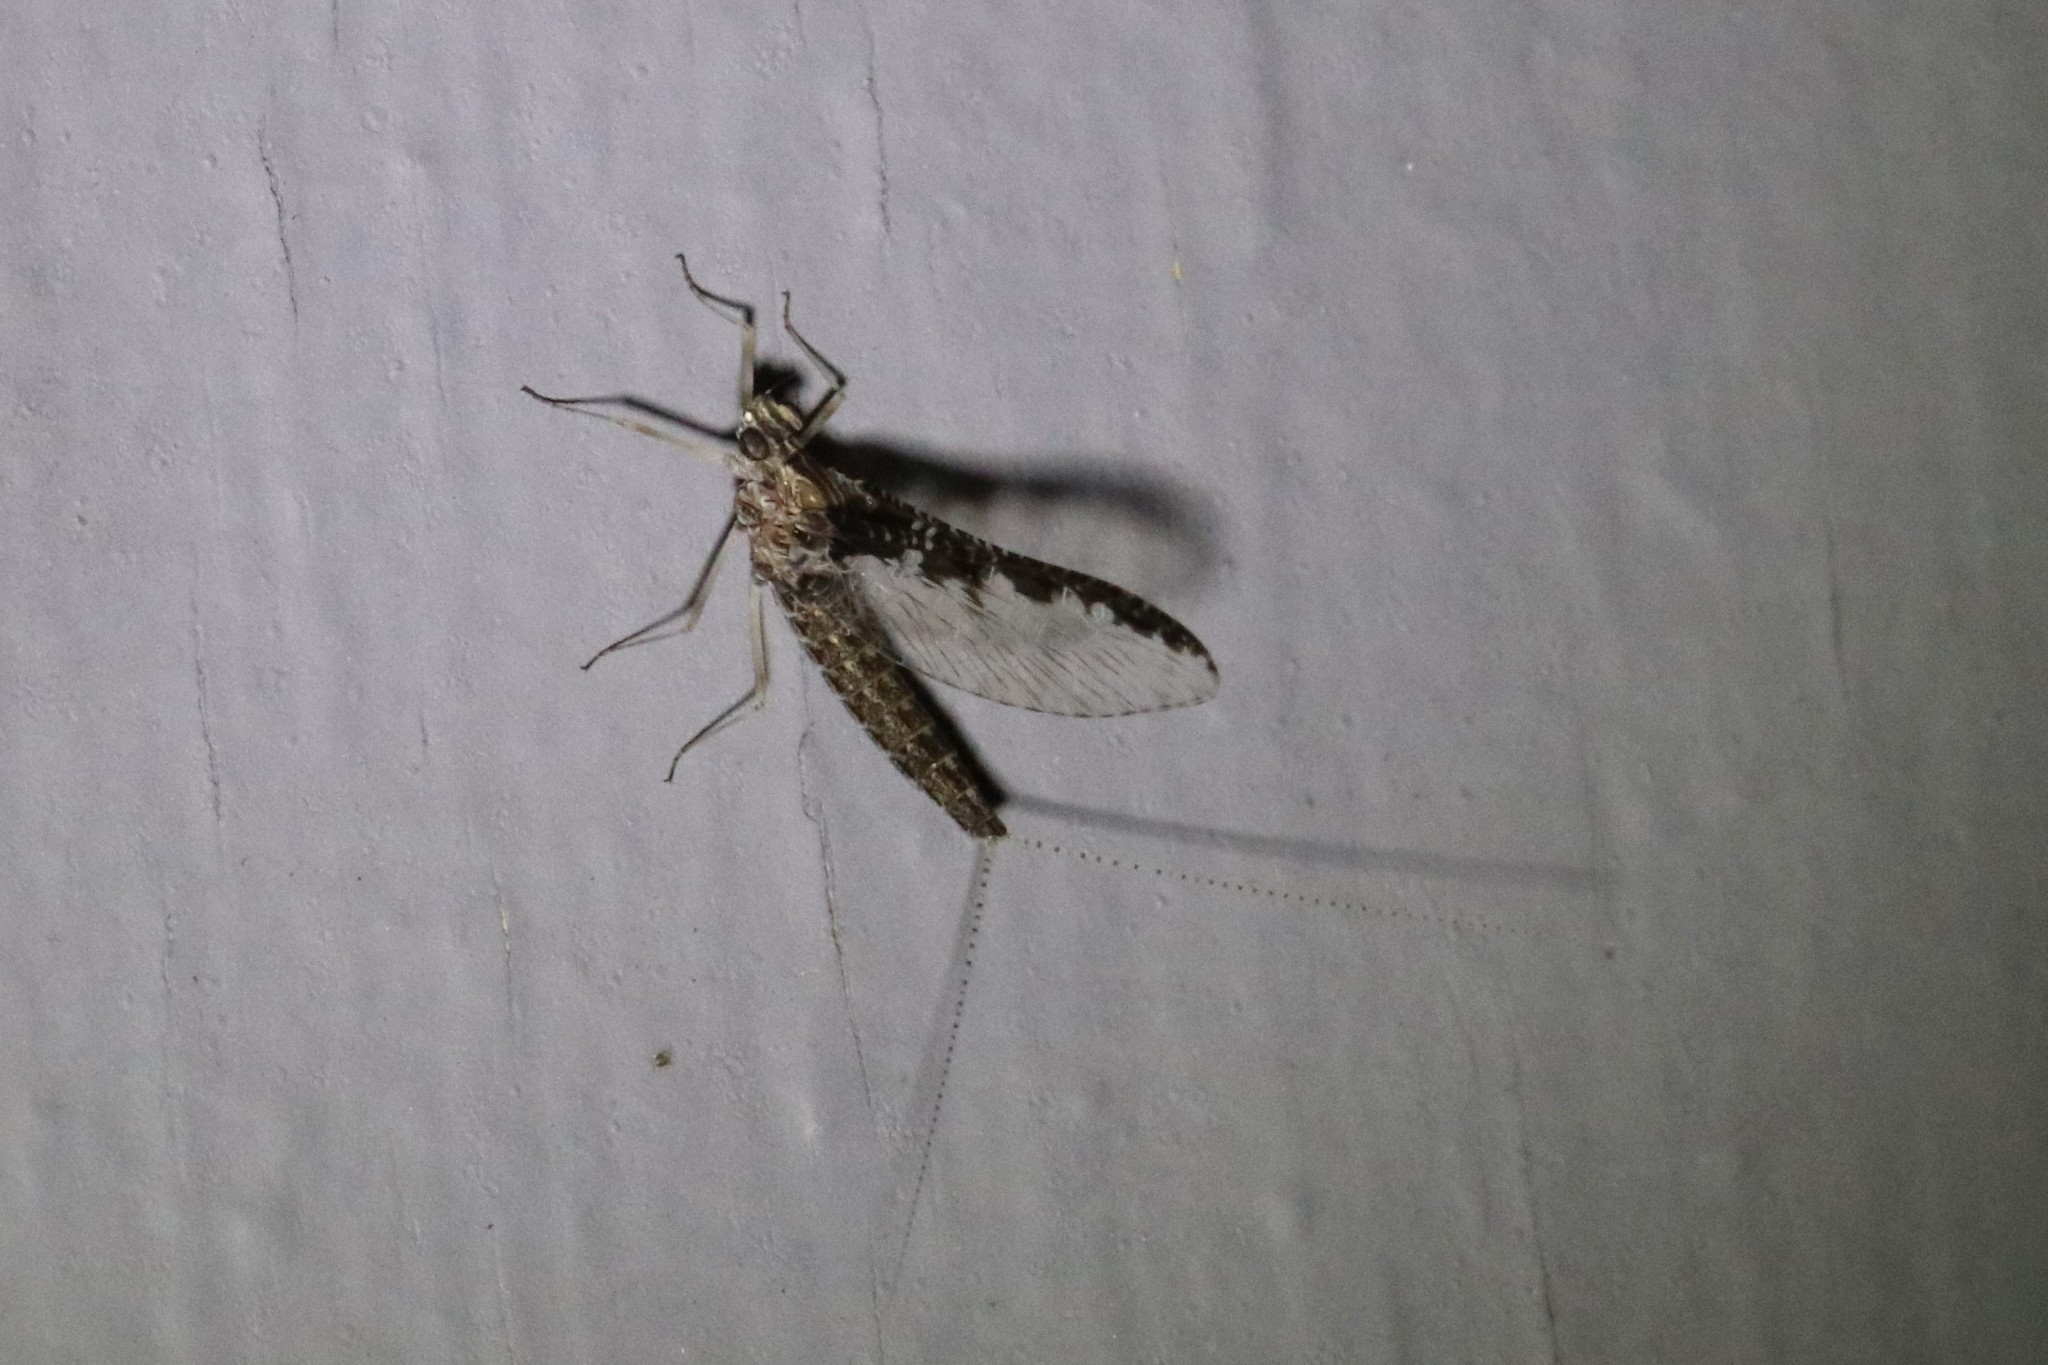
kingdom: Animalia
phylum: Arthropoda
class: Insecta
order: Ephemeroptera
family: Baetidae
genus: Callibaetis
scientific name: Callibaetis ferrugineus
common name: Red speckled dun
